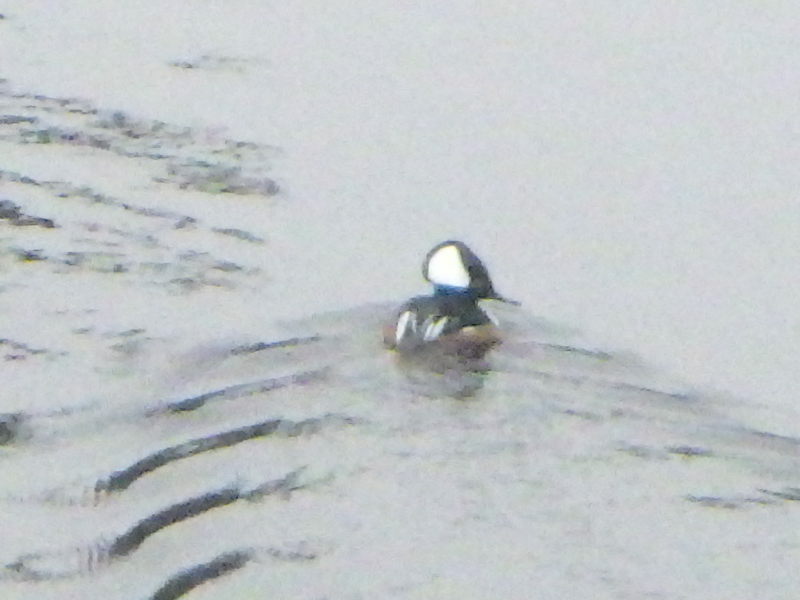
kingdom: Animalia
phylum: Chordata
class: Aves
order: Anseriformes
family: Anatidae
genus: Lophodytes
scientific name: Lophodytes cucullatus
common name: Hooded merganser
